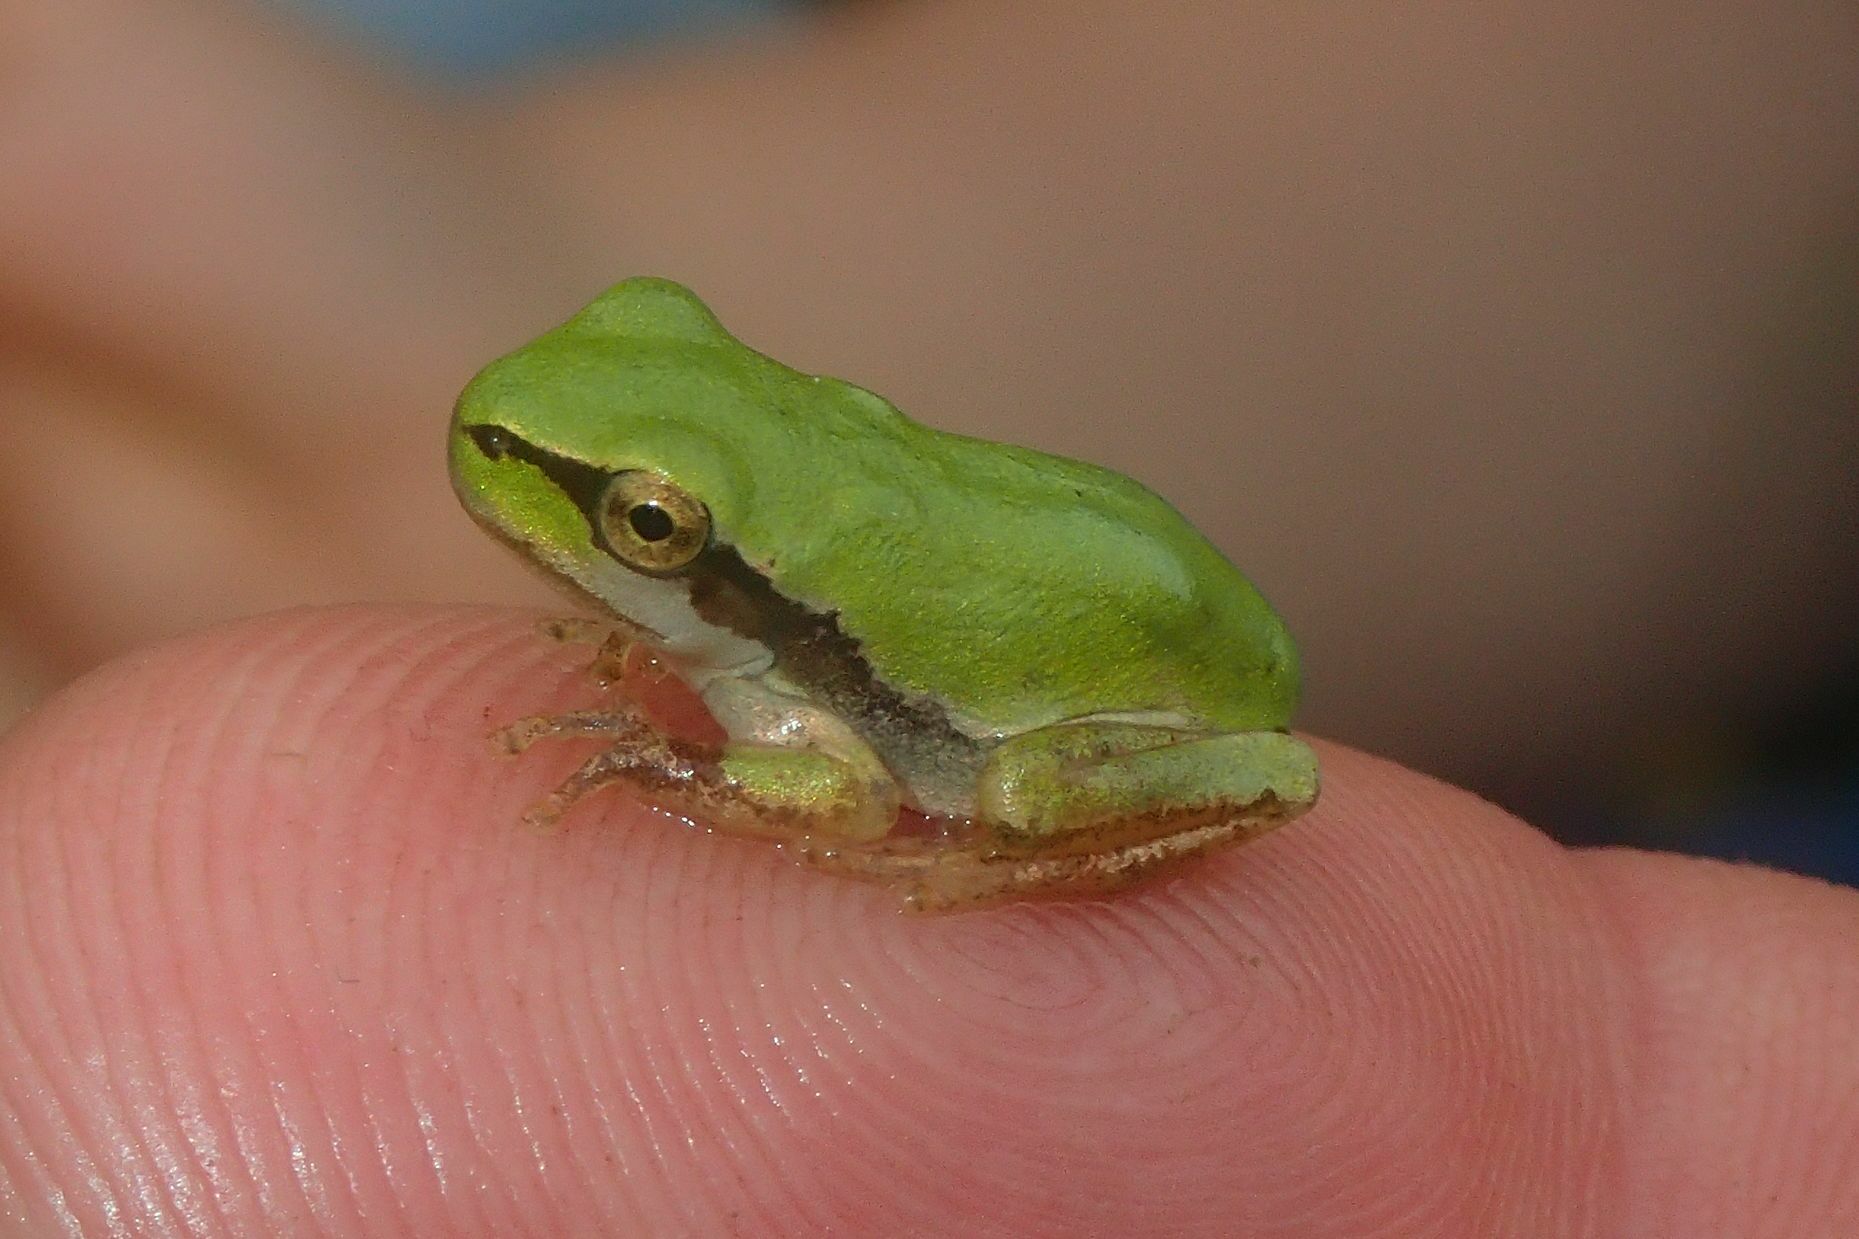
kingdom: Animalia
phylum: Chordata
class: Amphibia
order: Anura
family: Hylidae
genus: Hyla
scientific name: Hyla meridionalis
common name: Stripeless tree frog
